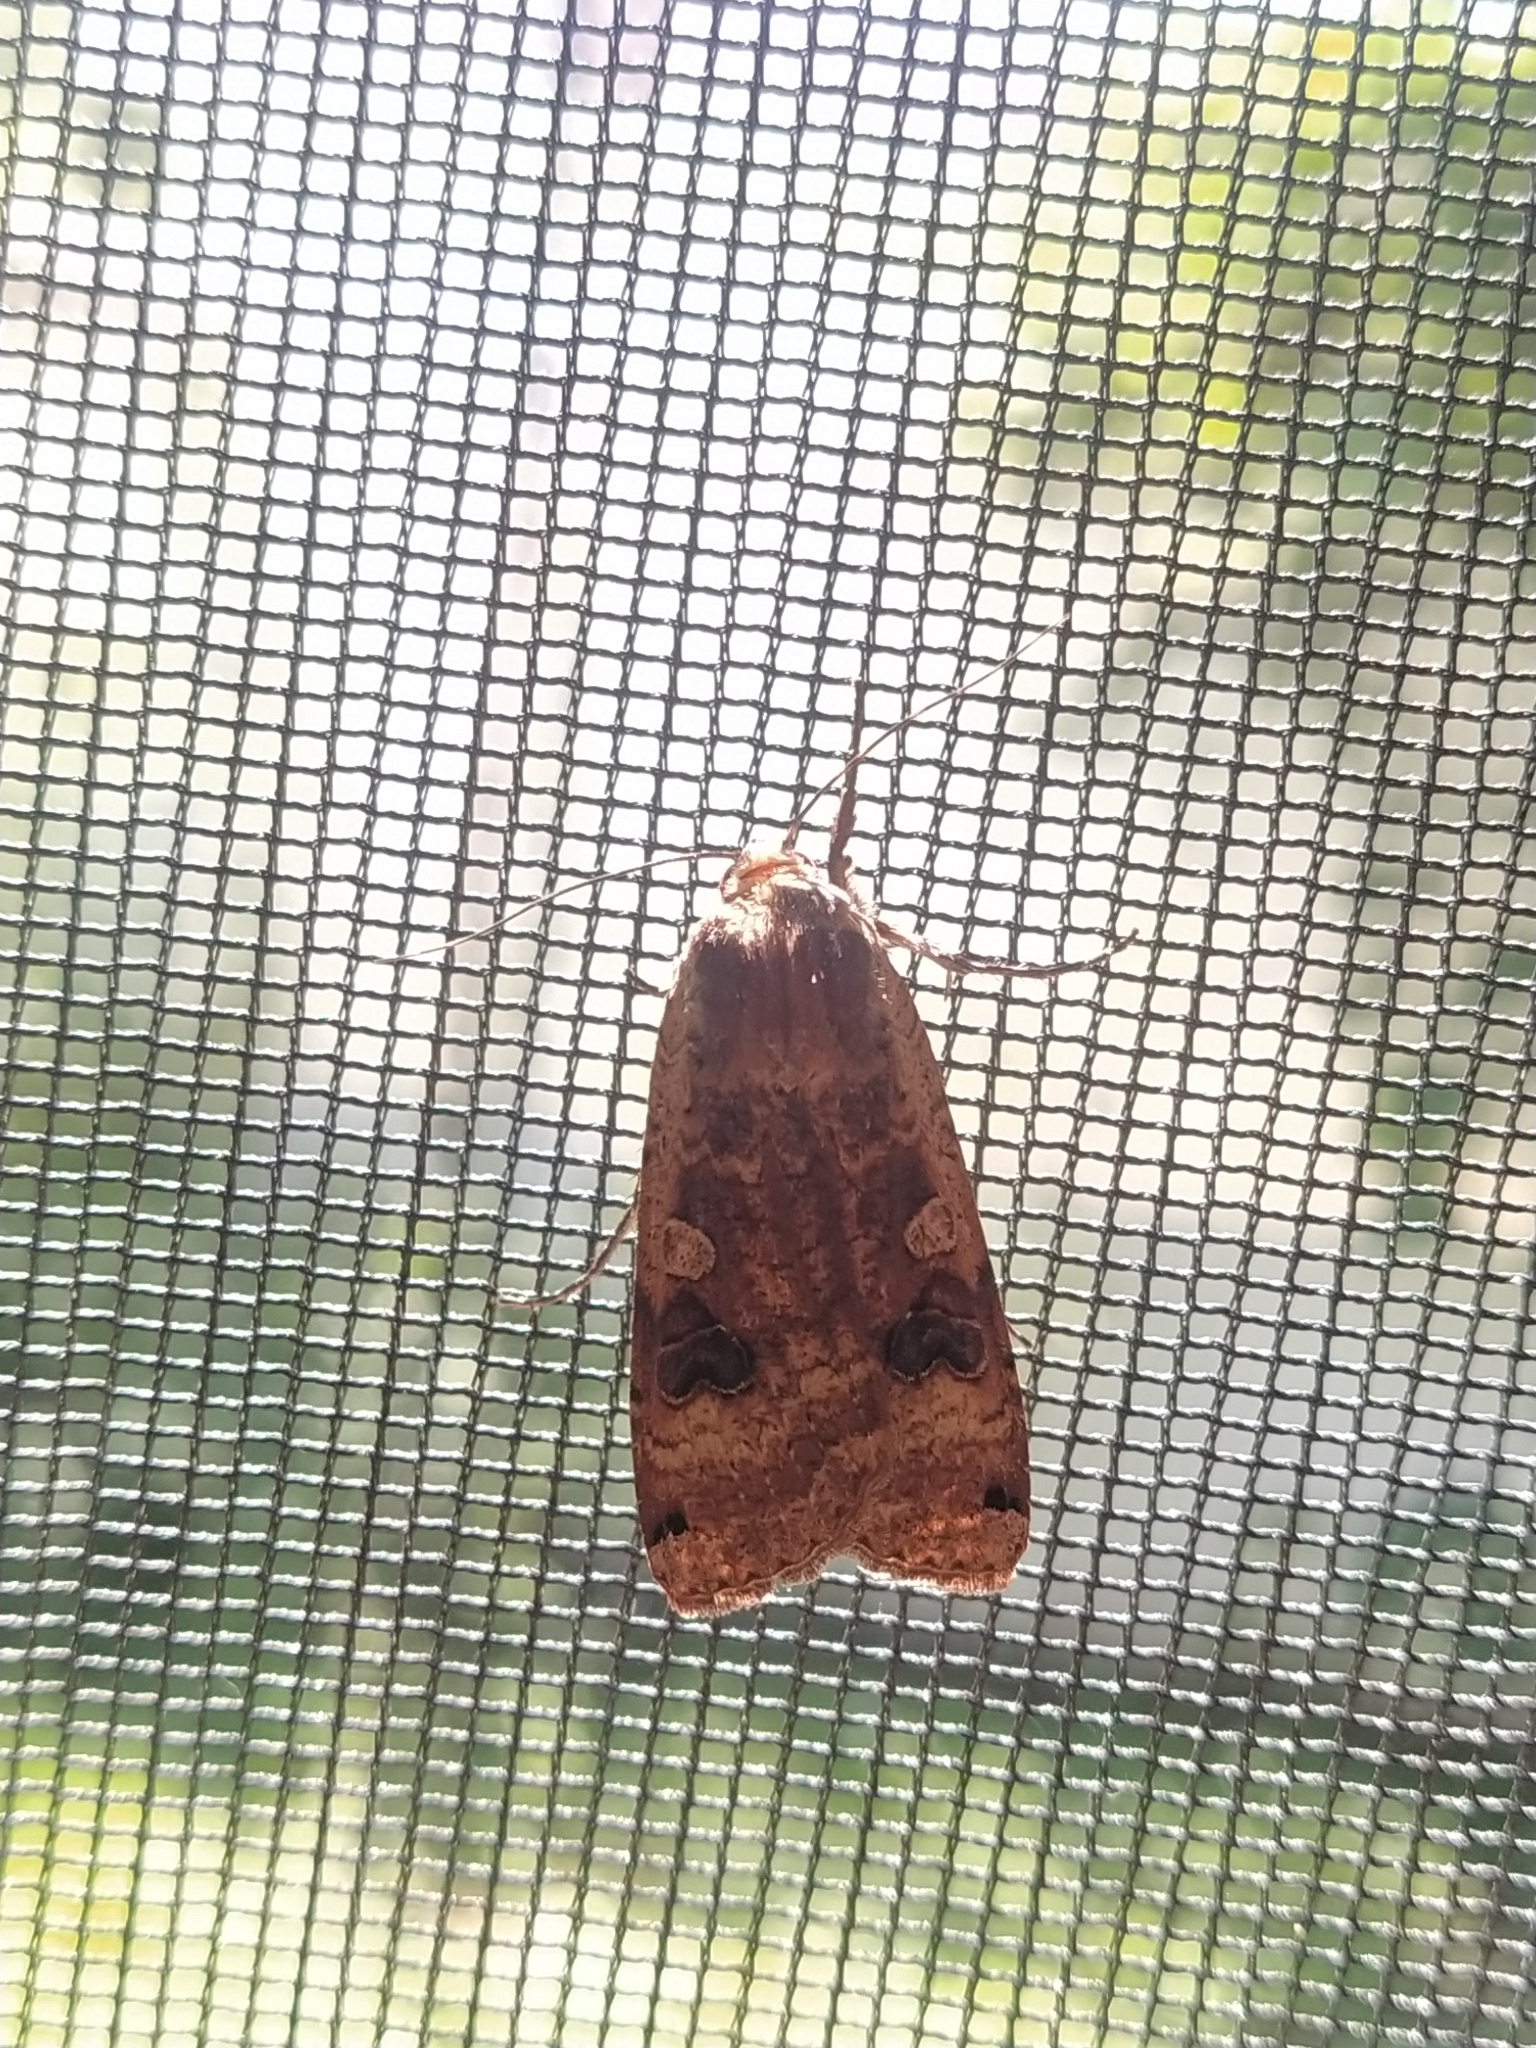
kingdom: Animalia
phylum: Arthropoda
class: Insecta
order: Lepidoptera
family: Noctuidae
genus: Noctua
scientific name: Noctua pronuba
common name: Large yellow underwing
